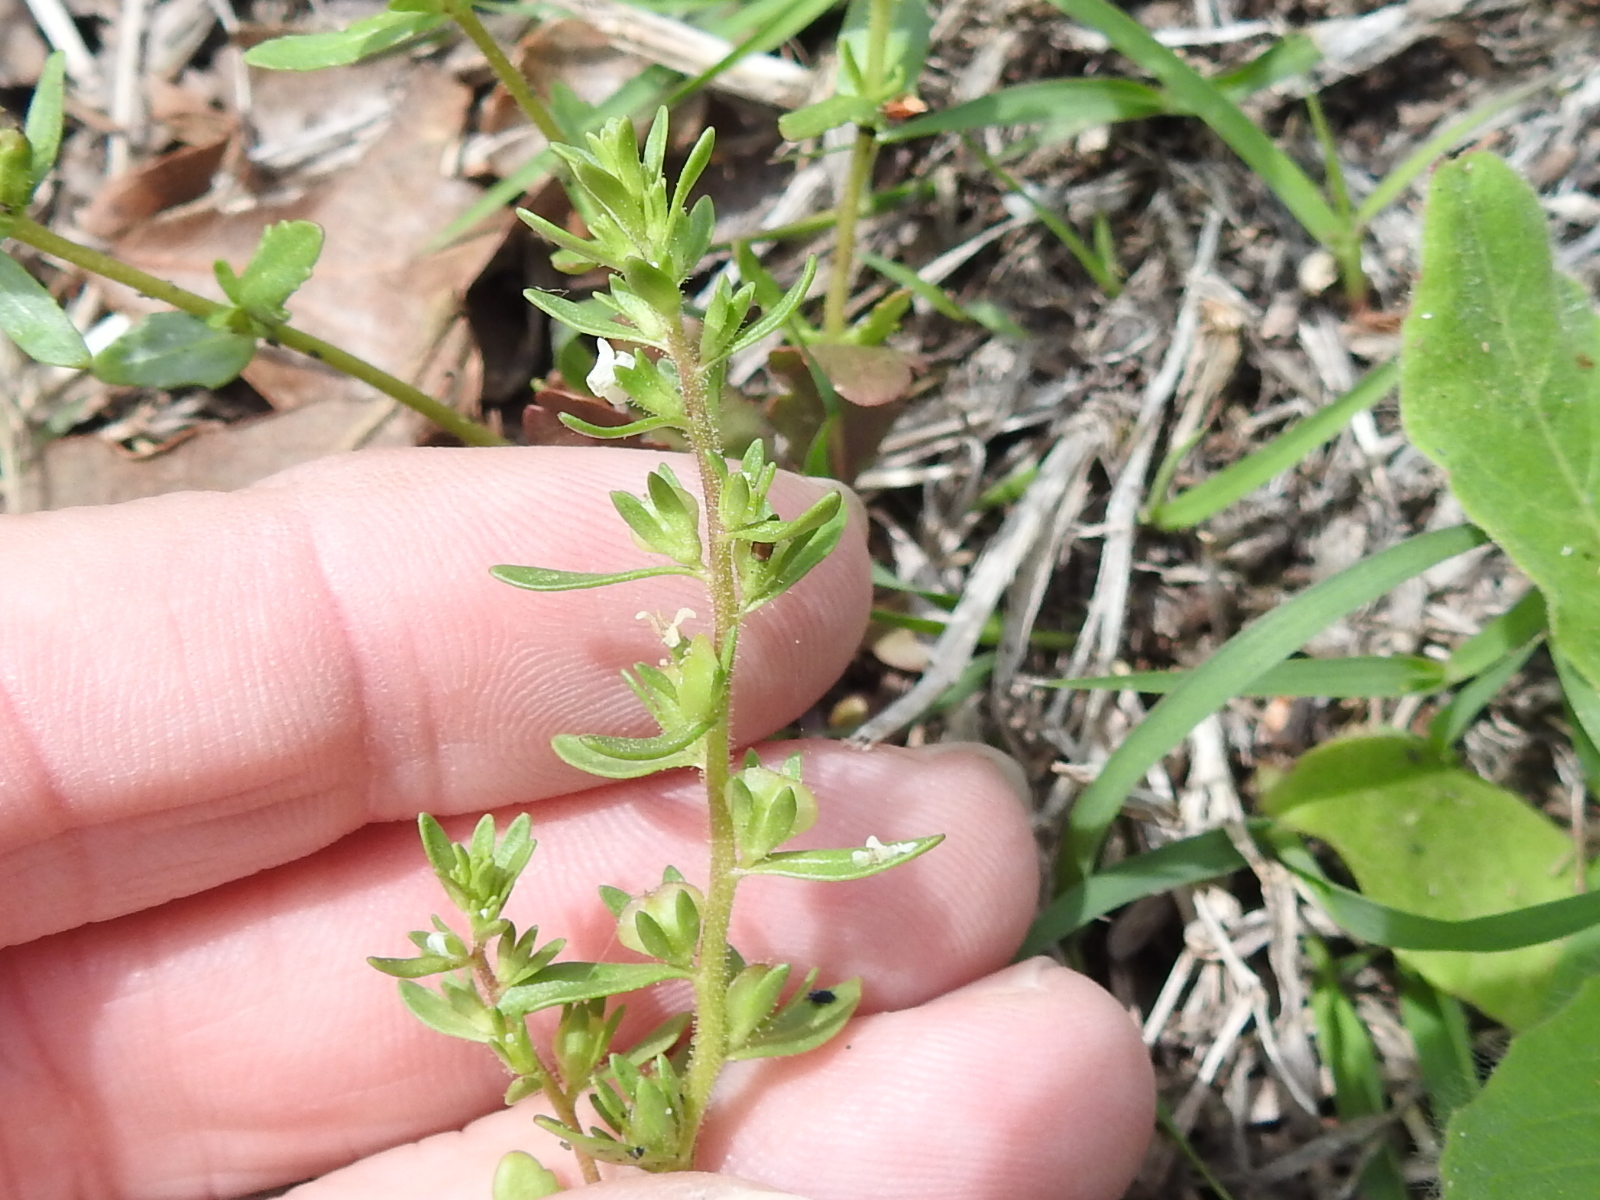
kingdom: Plantae
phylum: Tracheophyta
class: Magnoliopsida
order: Lamiales
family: Plantaginaceae
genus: Veronica
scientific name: Veronica peregrina
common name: Neckweed
